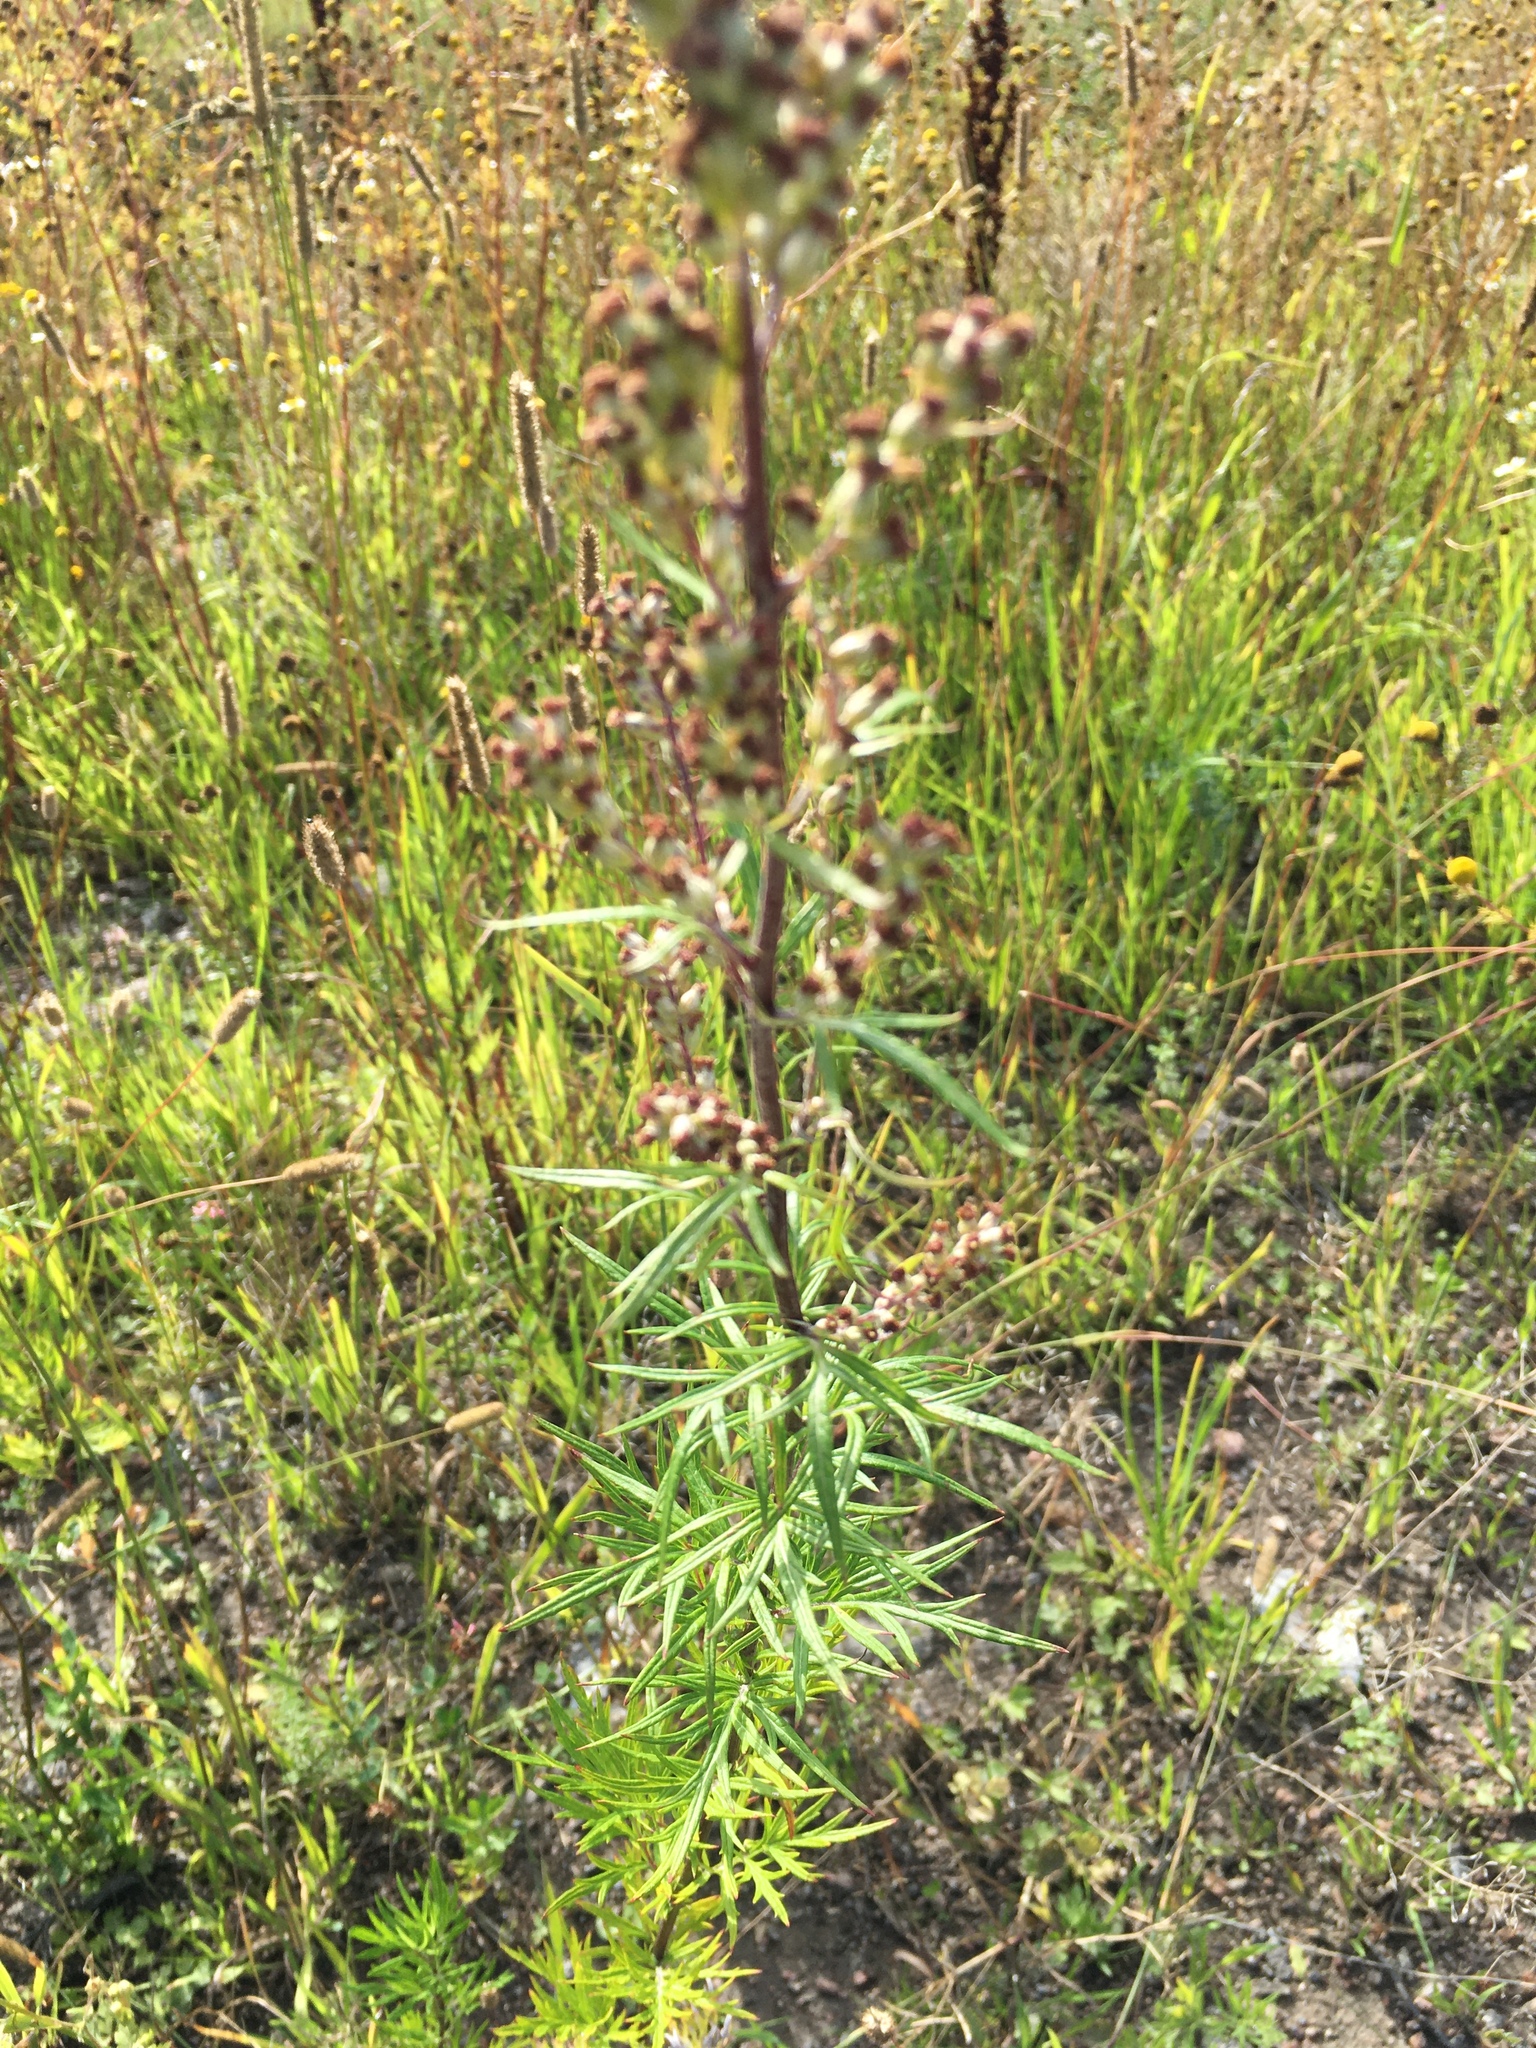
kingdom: Plantae
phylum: Tracheophyta
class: Magnoliopsida
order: Asterales
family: Asteraceae
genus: Artemisia
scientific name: Artemisia vulgaris
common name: Mugwort
